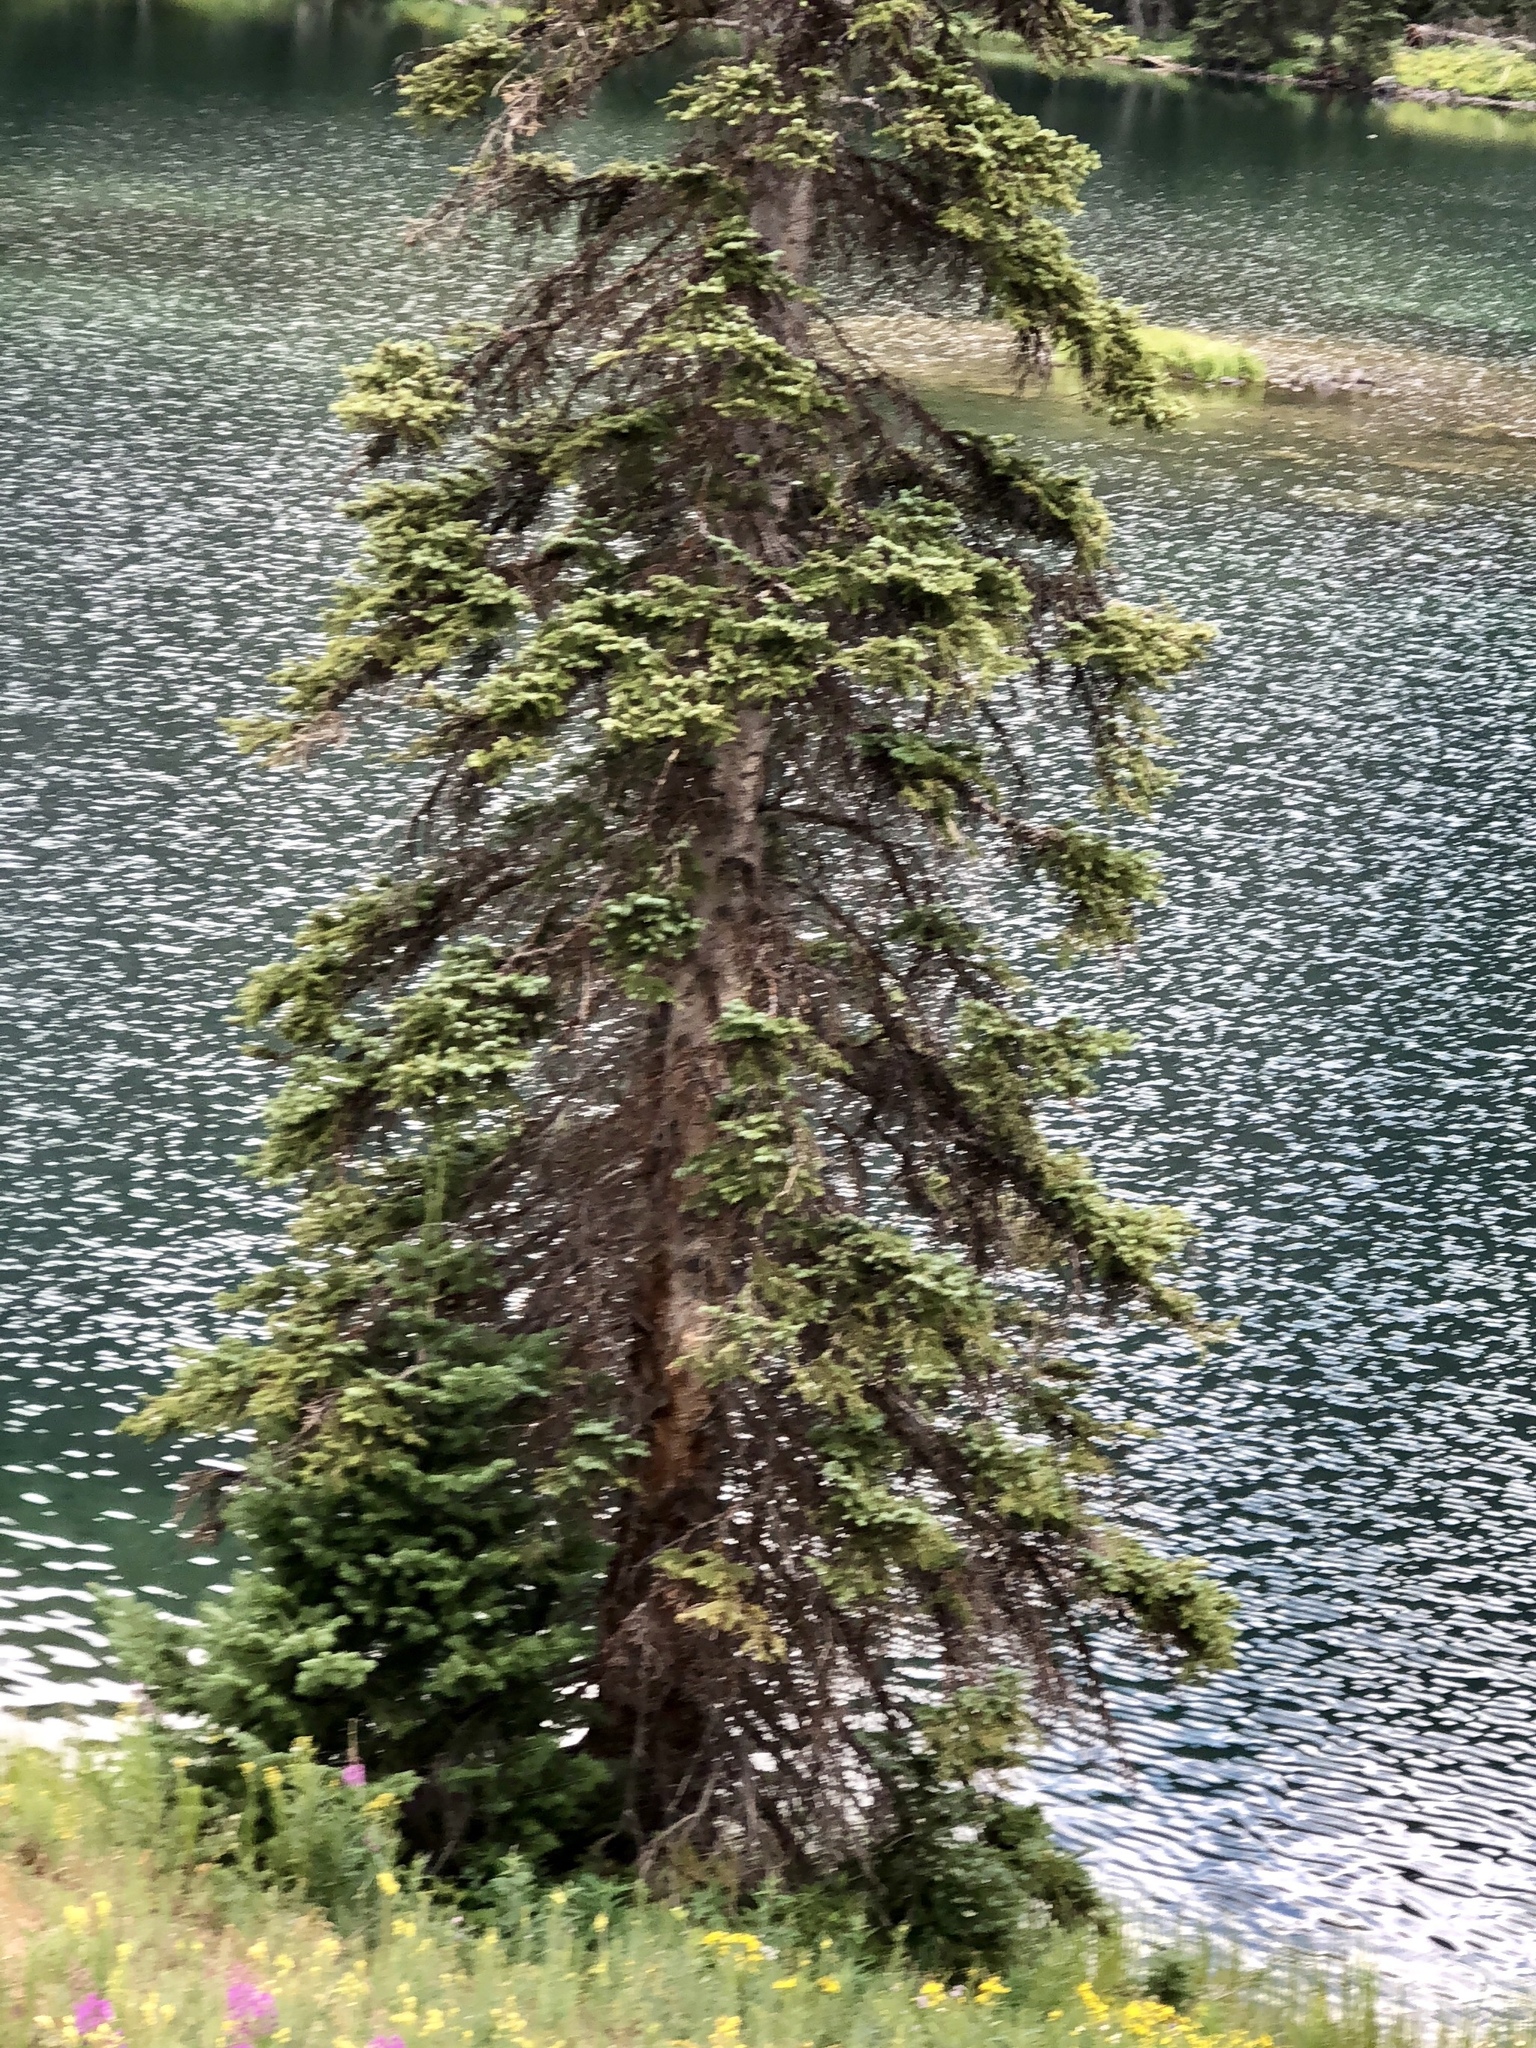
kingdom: Plantae
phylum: Tracheophyta
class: Pinopsida
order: Pinales
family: Pinaceae
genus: Picea
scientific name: Picea engelmannii
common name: Engelmann spruce
